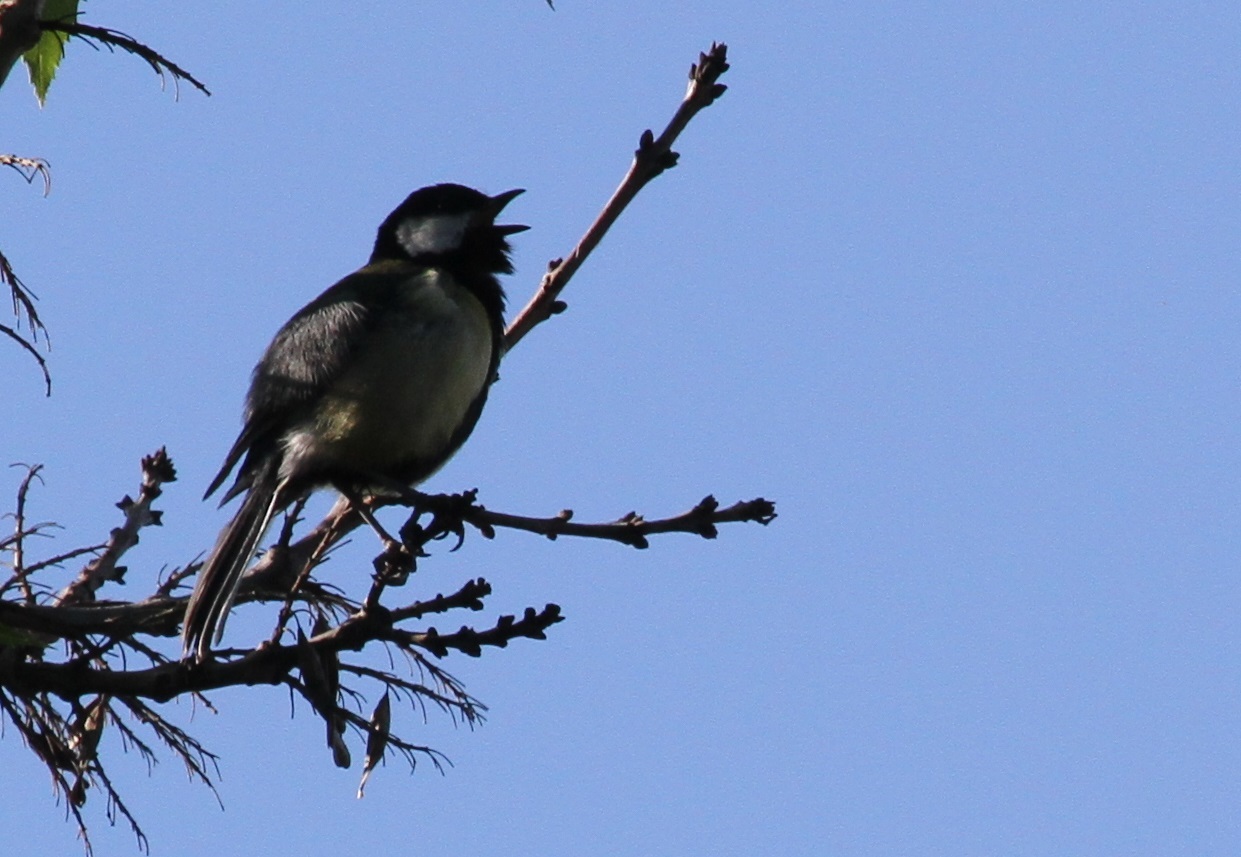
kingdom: Animalia
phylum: Chordata
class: Aves
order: Passeriformes
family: Paridae
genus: Parus
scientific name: Parus major
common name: Great tit
